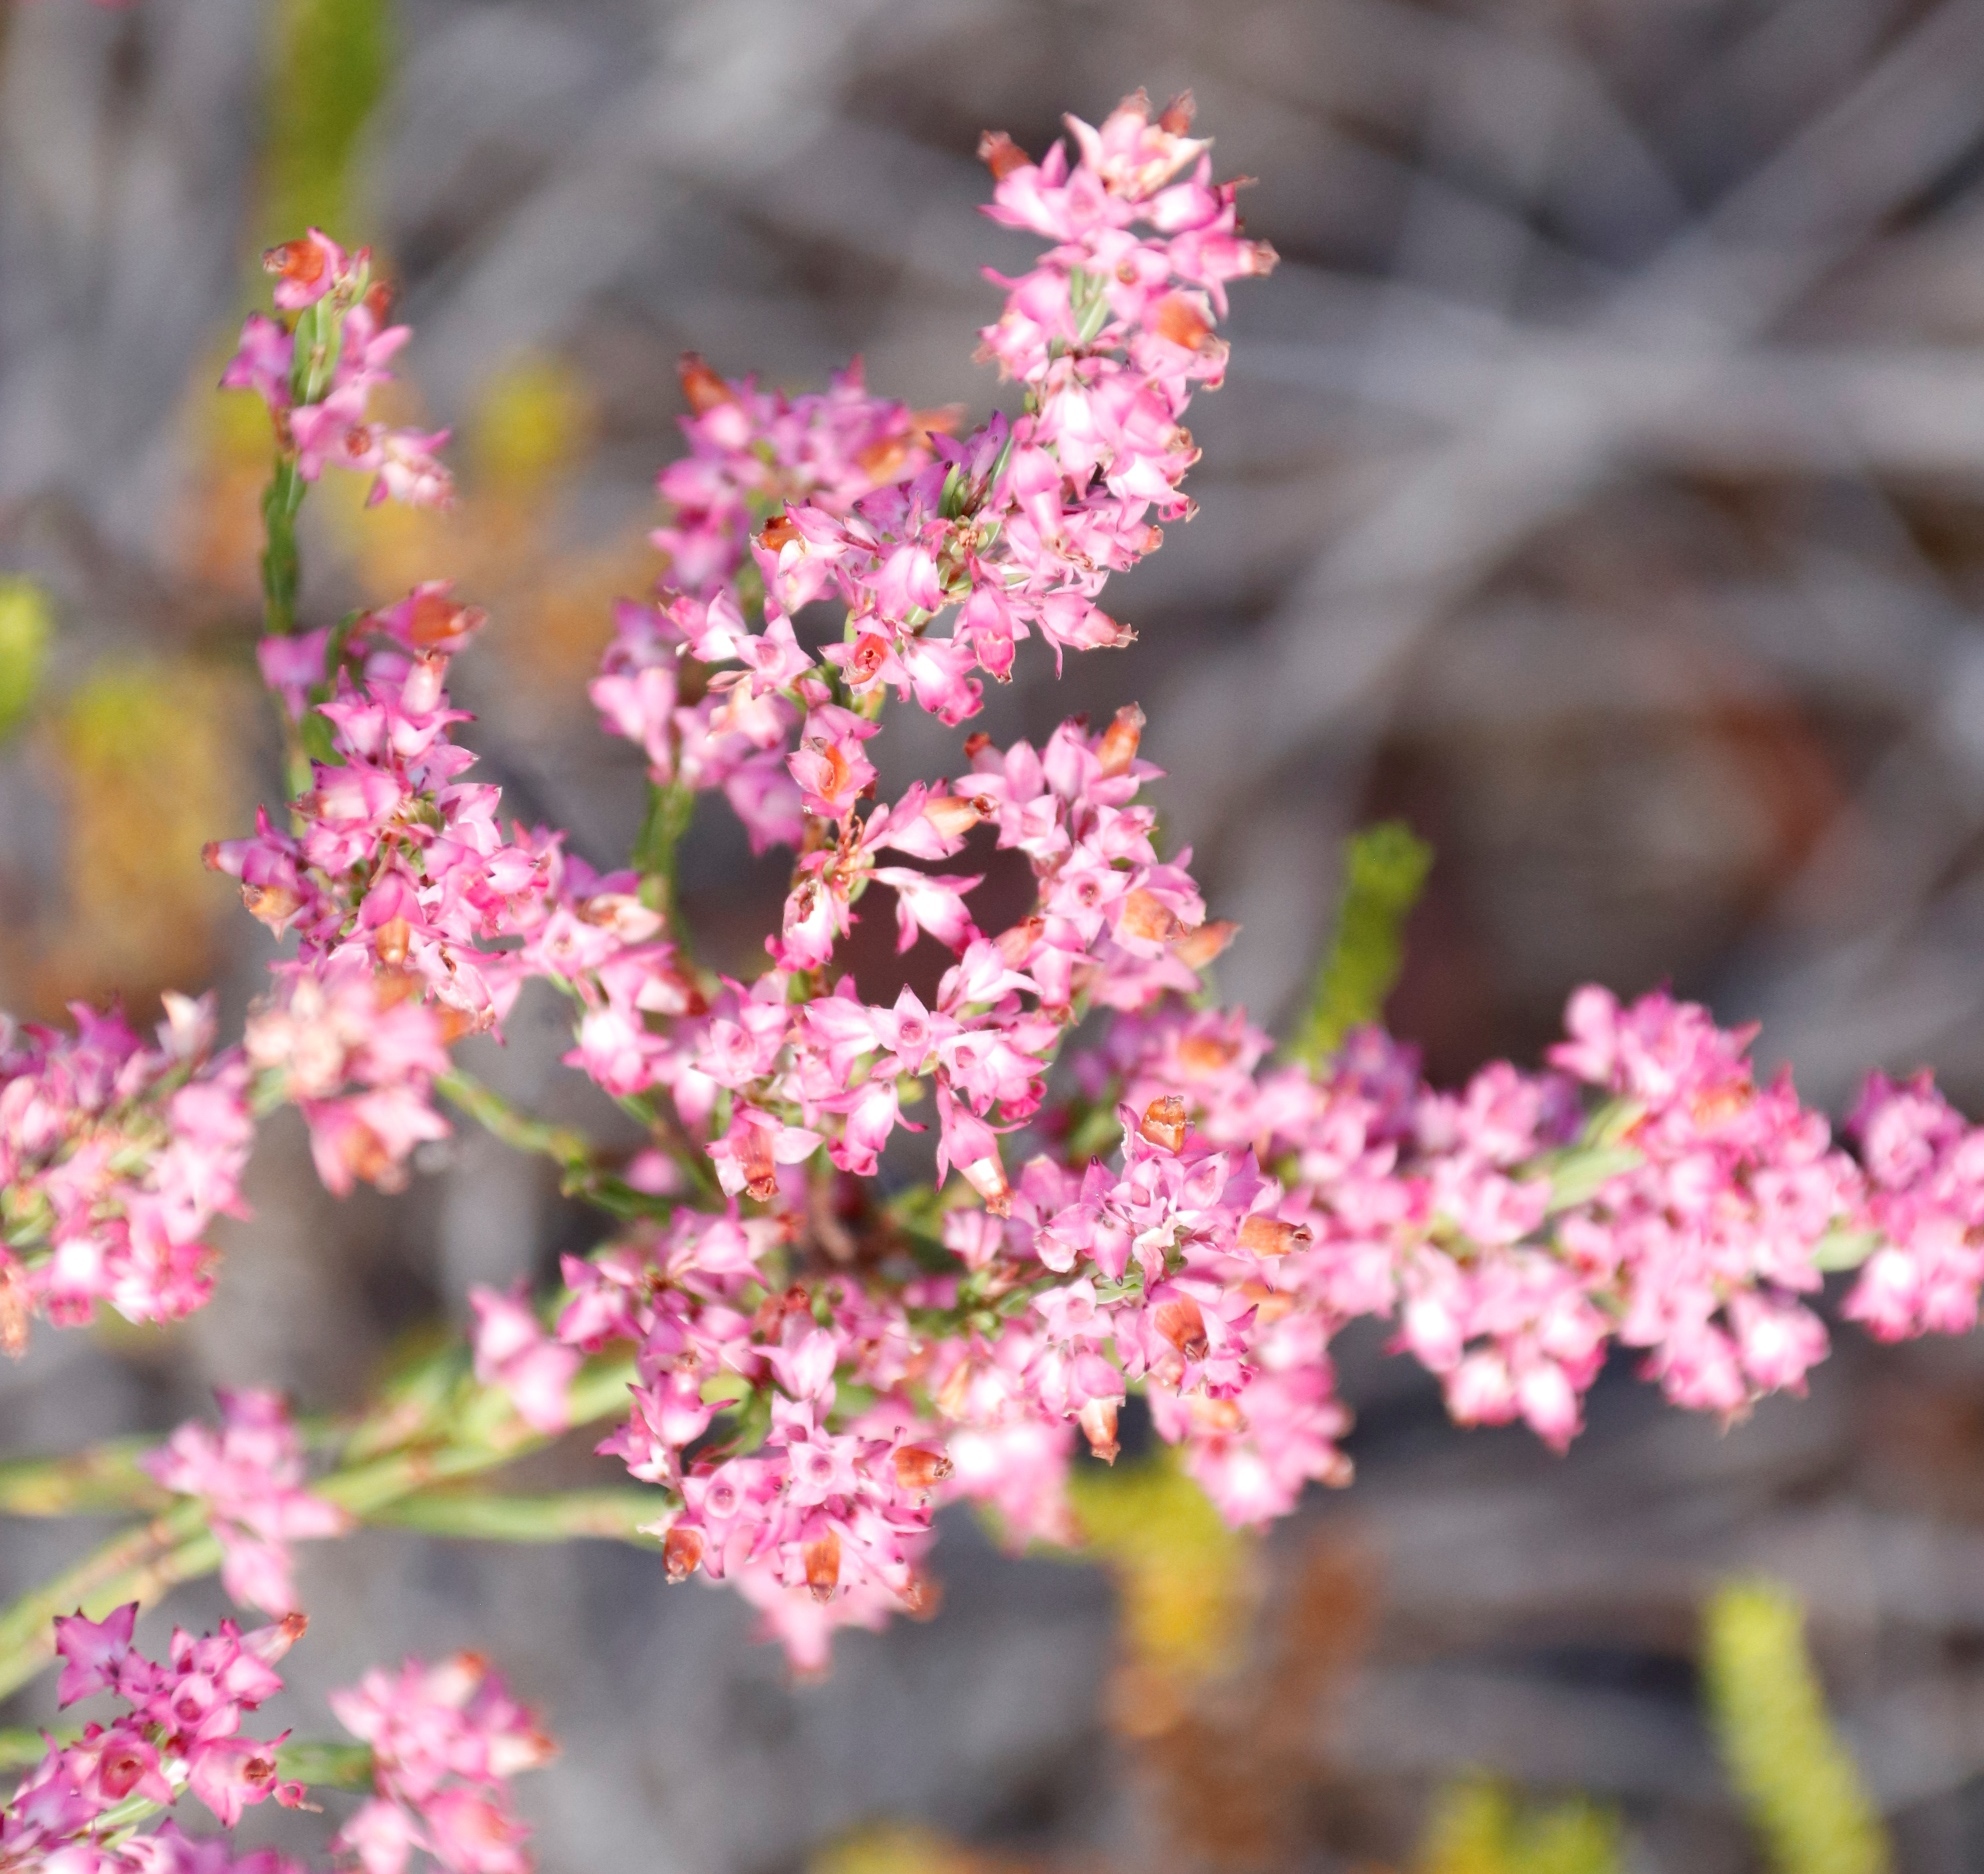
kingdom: Plantae
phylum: Tracheophyta
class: Magnoliopsida
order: Ericales
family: Ericaceae
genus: Erica
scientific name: Erica corifolia
